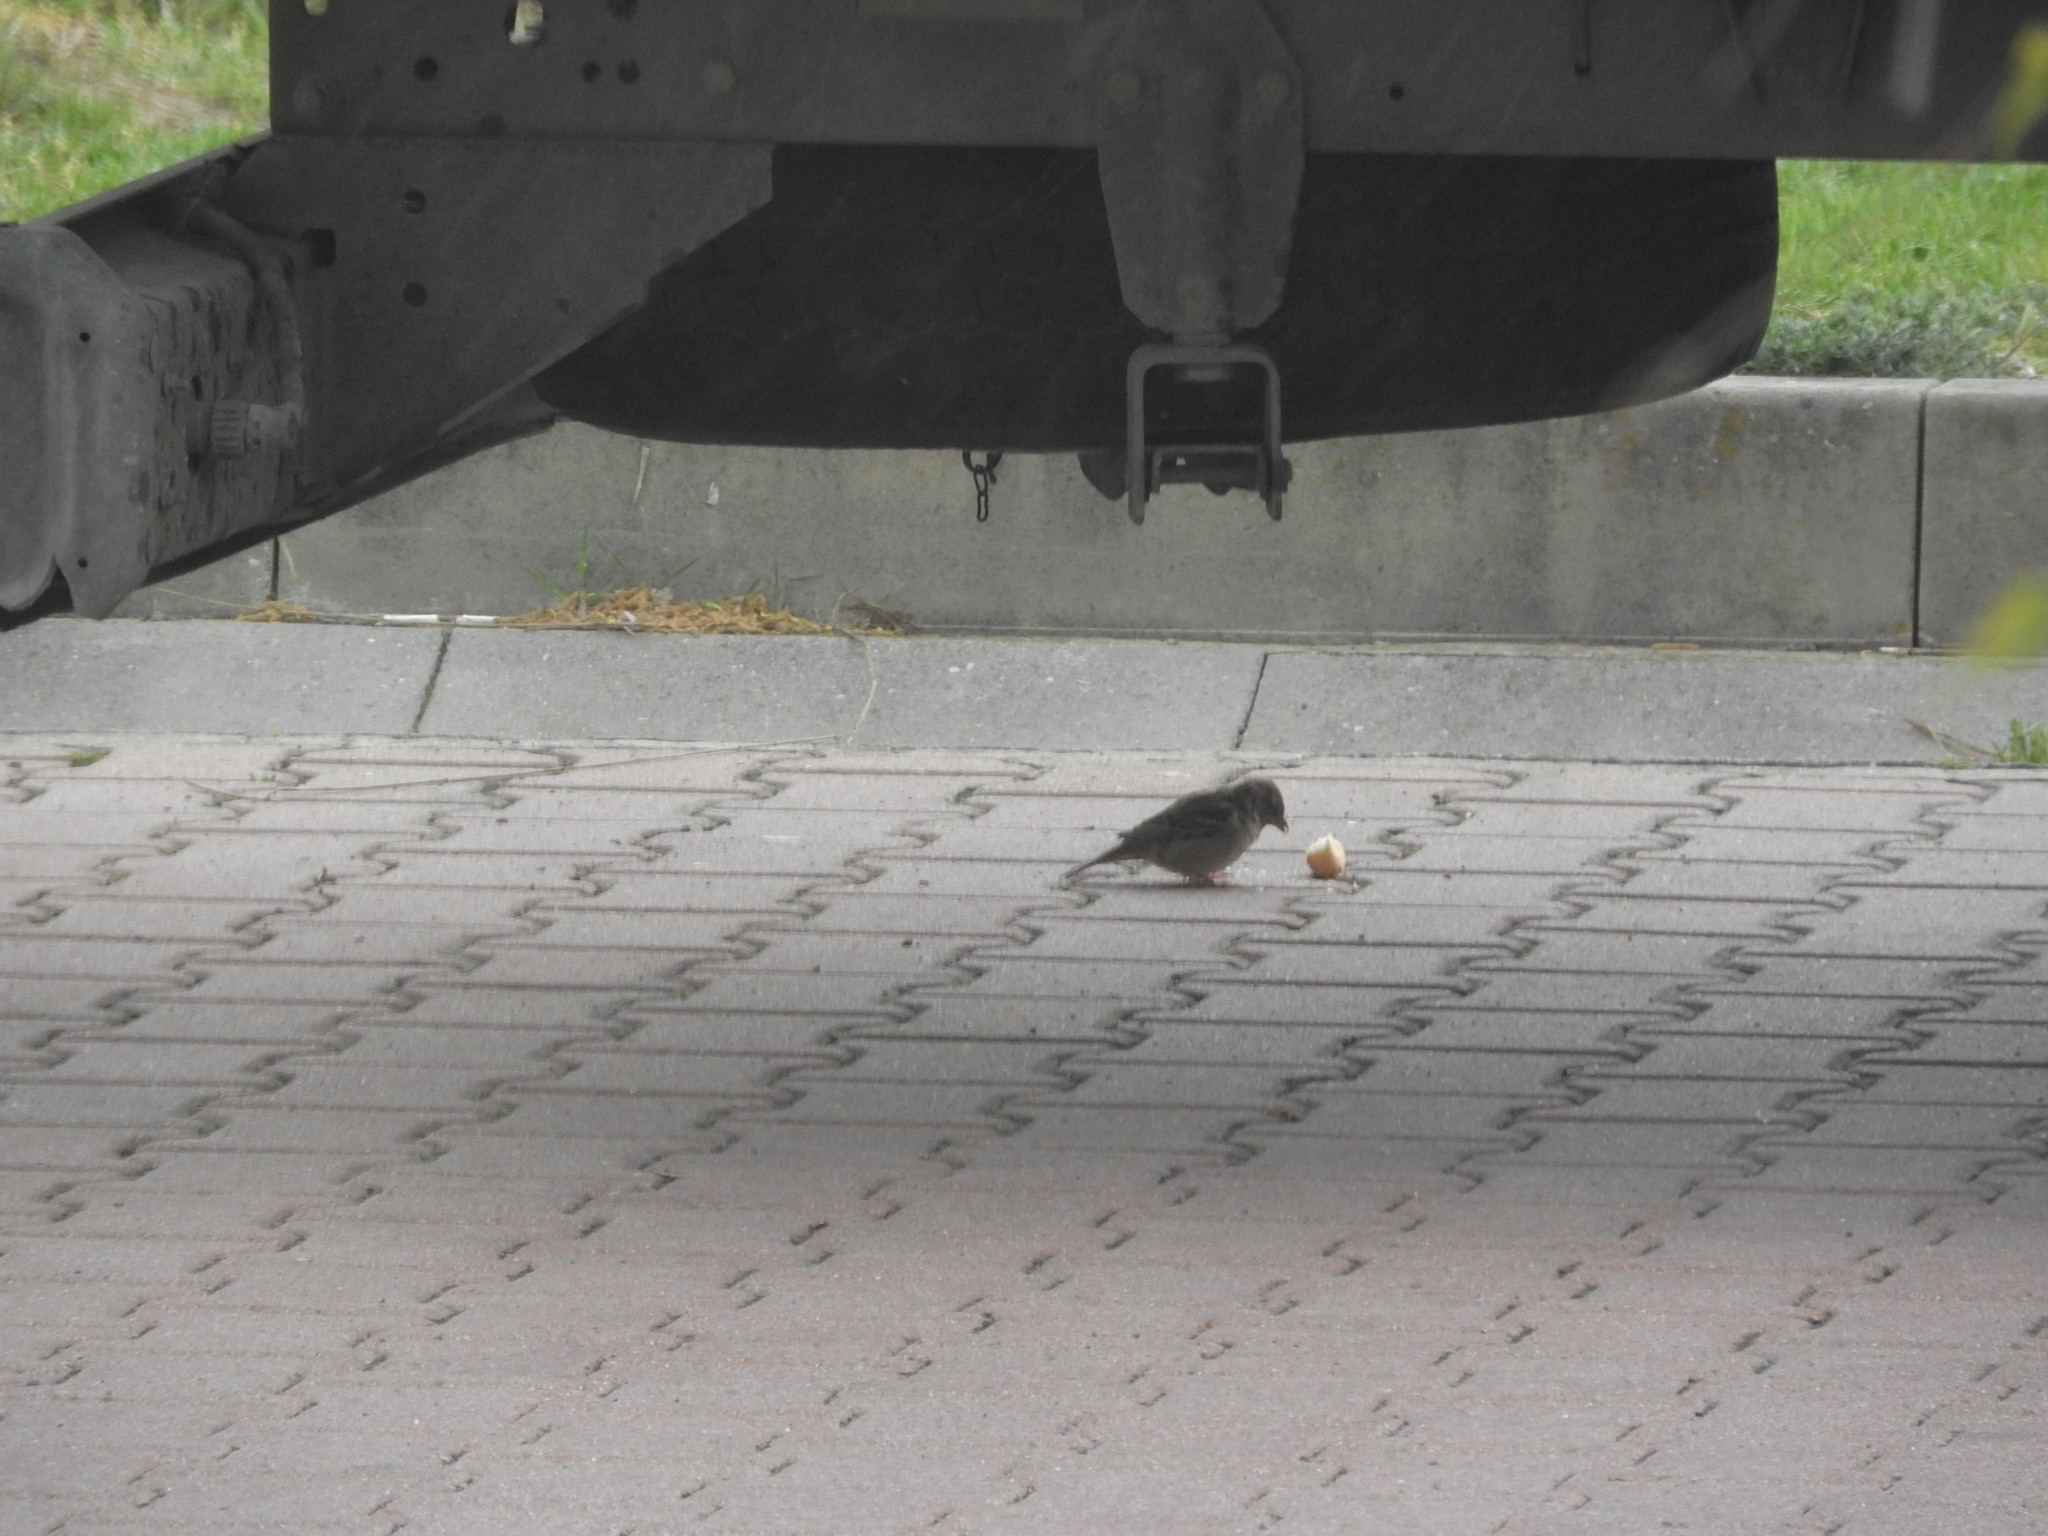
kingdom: Animalia
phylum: Chordata
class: Aves
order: Passeriformes
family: Passeridae
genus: Passer
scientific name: Passer domesticus
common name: House sparrow
